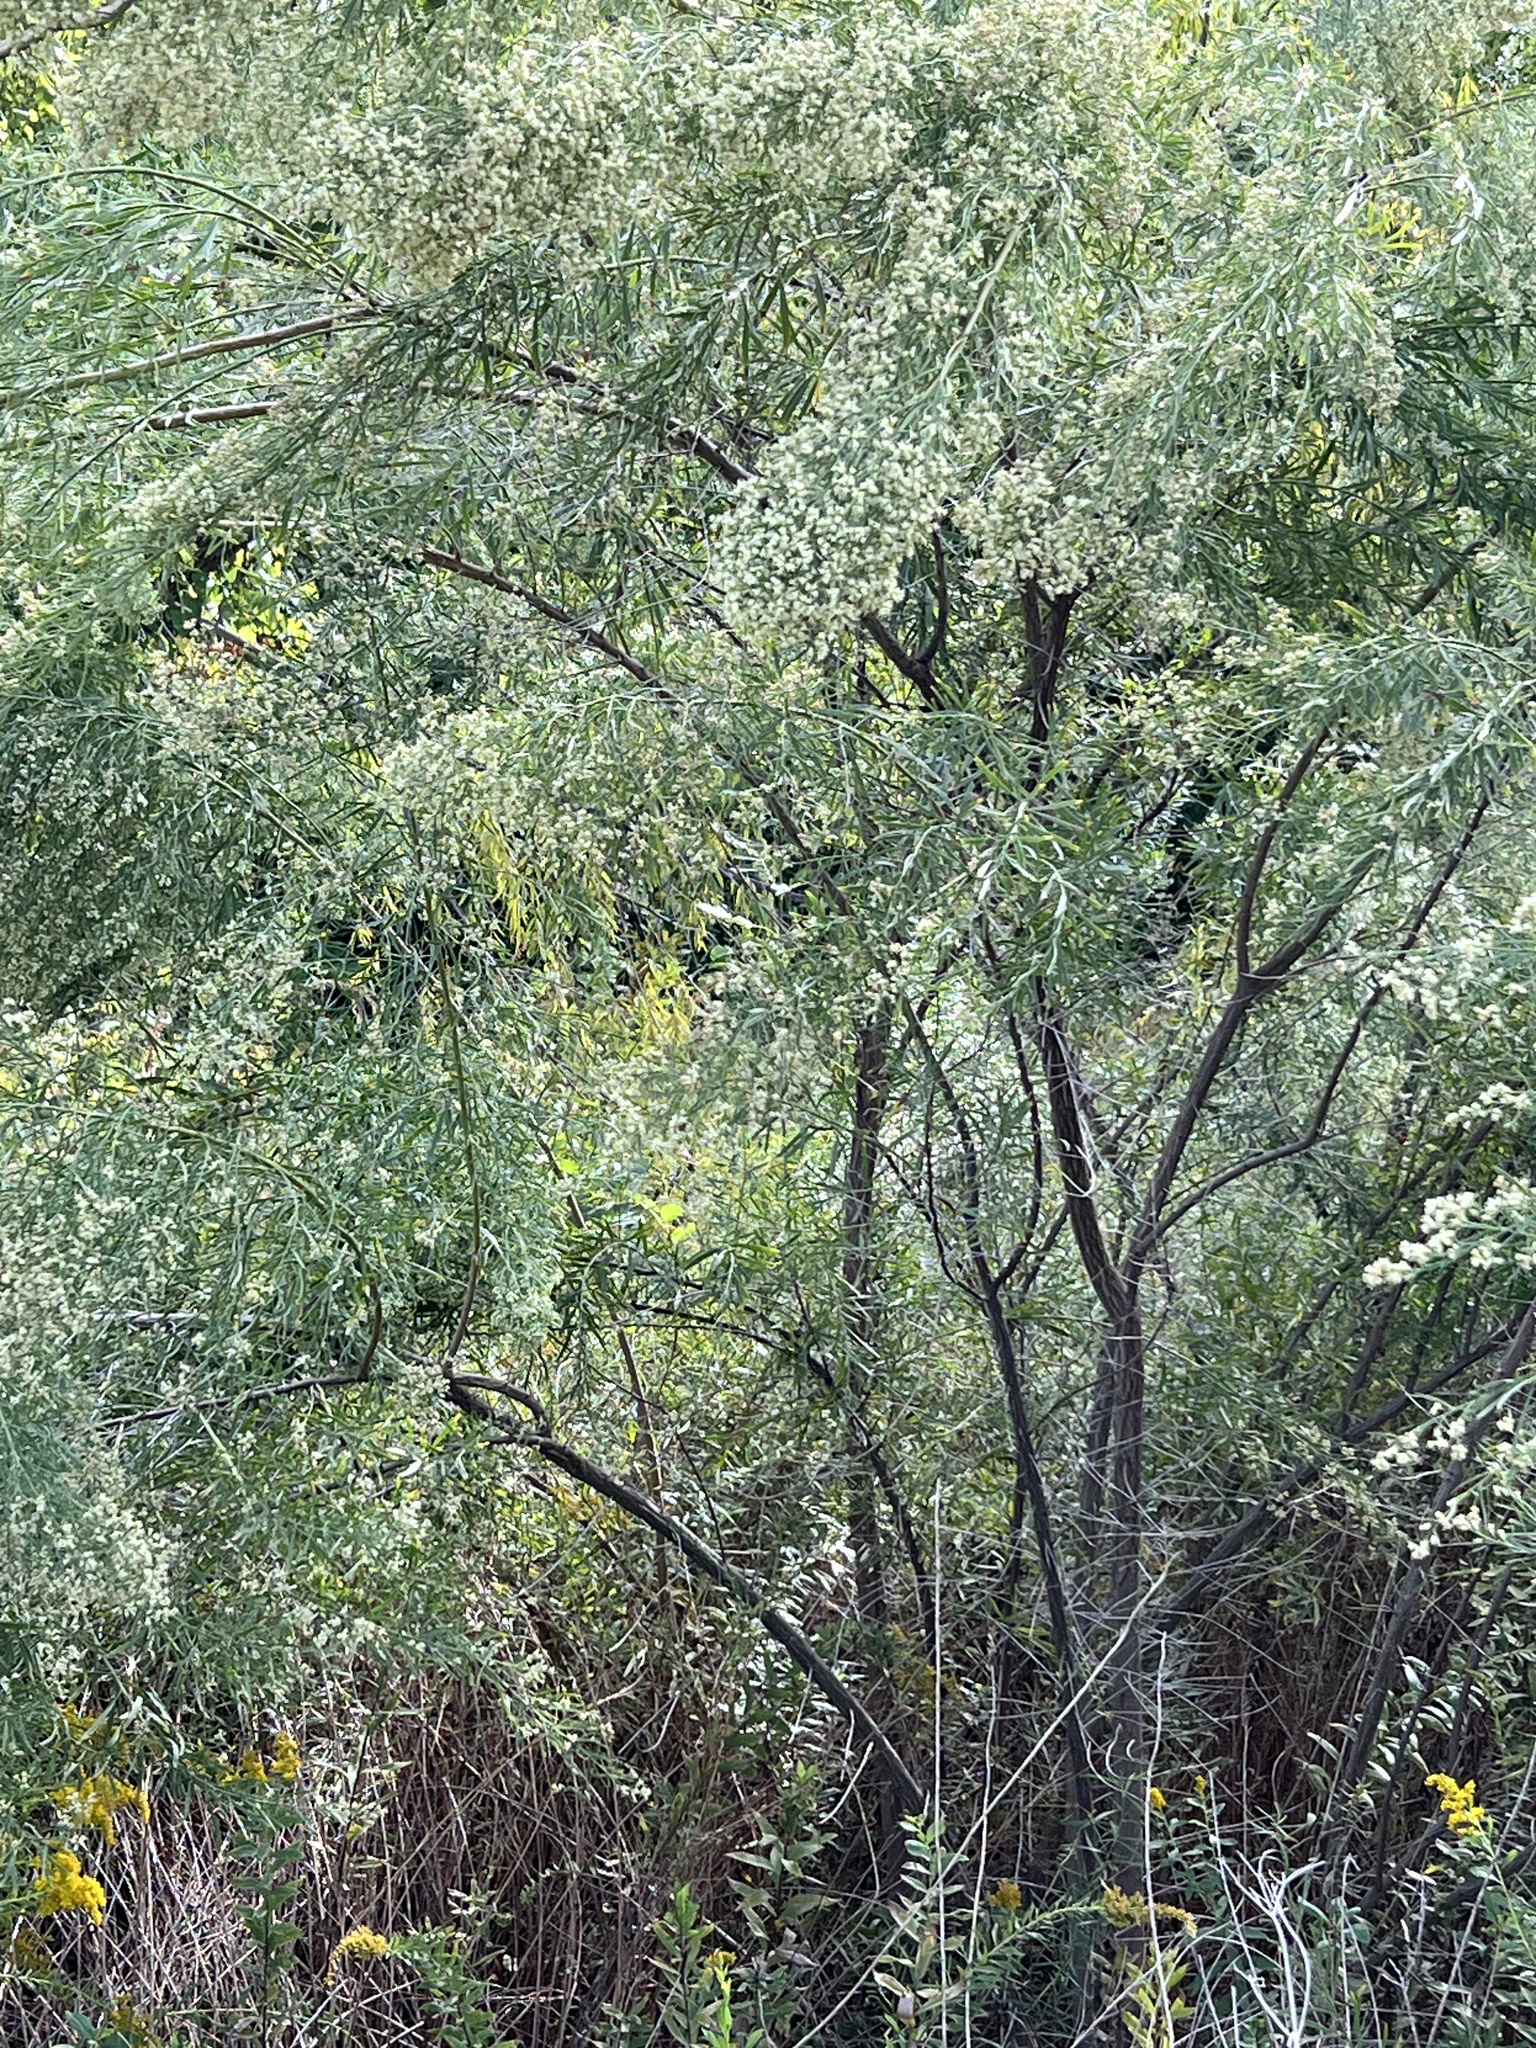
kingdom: Plantae
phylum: Tracheophyta
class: Magnoliopsida
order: Asterales
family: Asteraceae
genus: Baccharis
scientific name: Baccharis neglecta
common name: Roosevelt-weed
